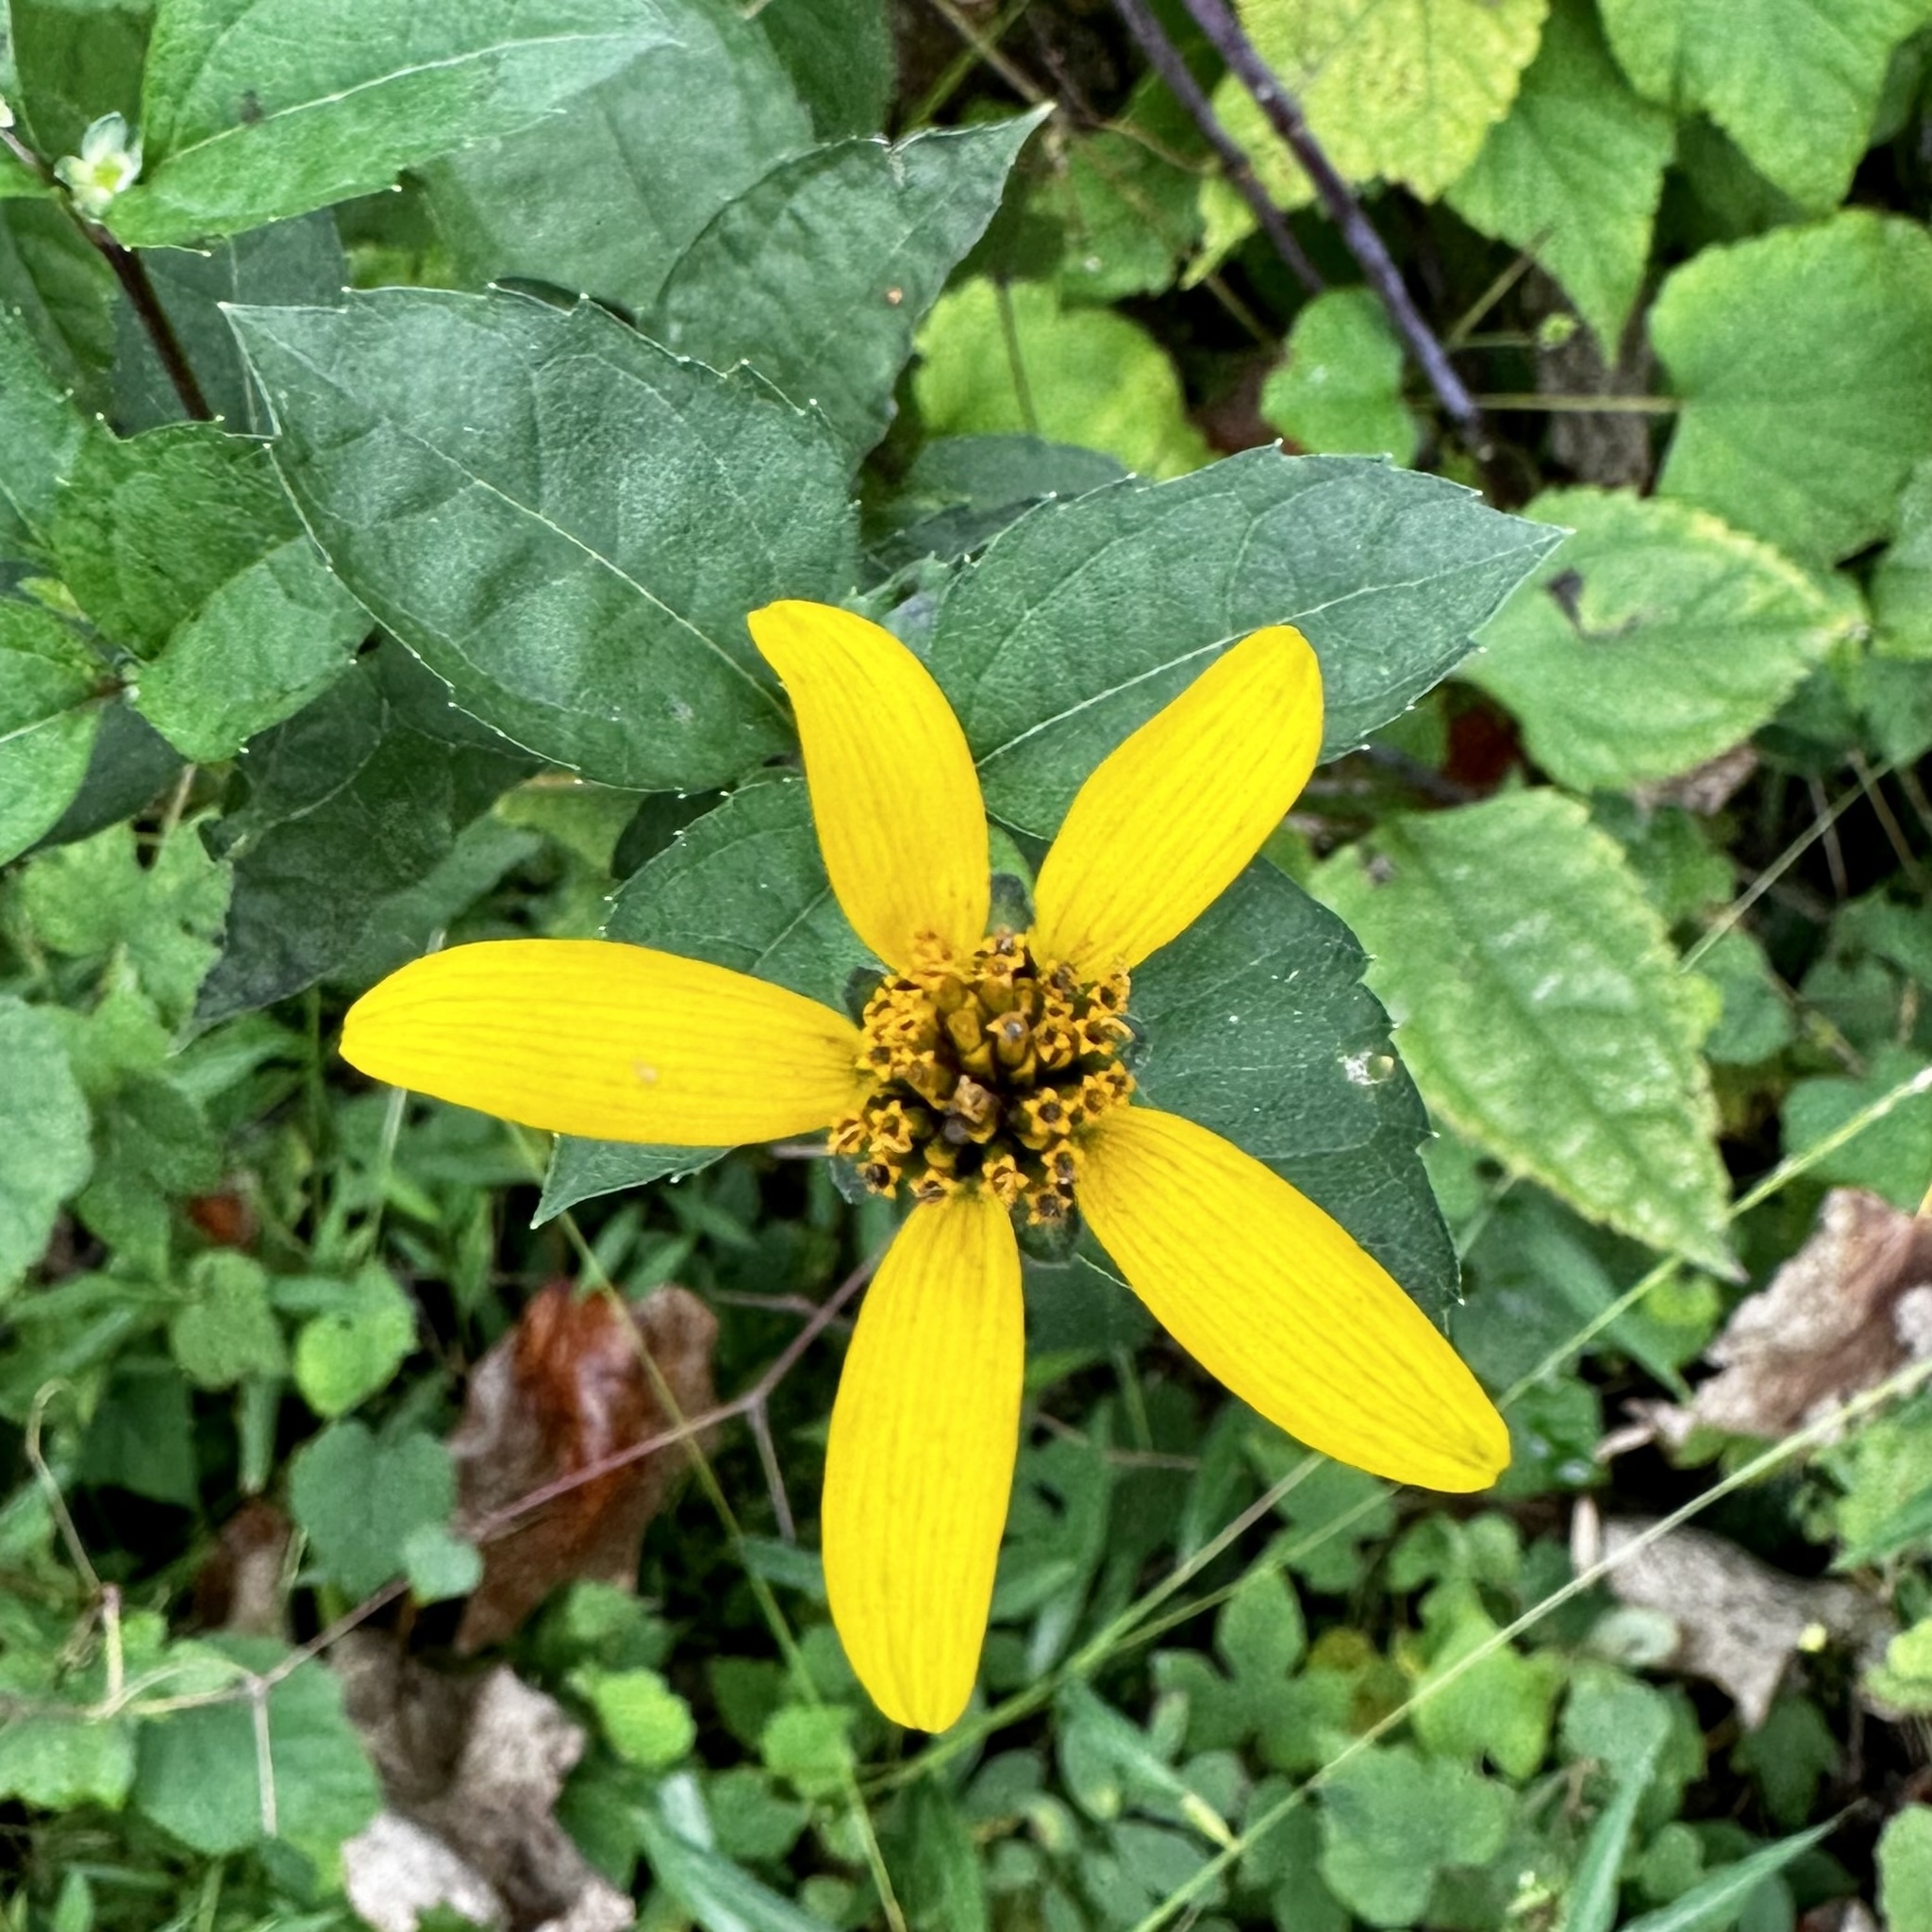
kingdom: Plantae
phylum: Tracheophyta
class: Magnoliopsida
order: Asterales
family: Asteraceae
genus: Heliopsis
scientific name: Heliopsis helianthoides
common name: False sunflower
